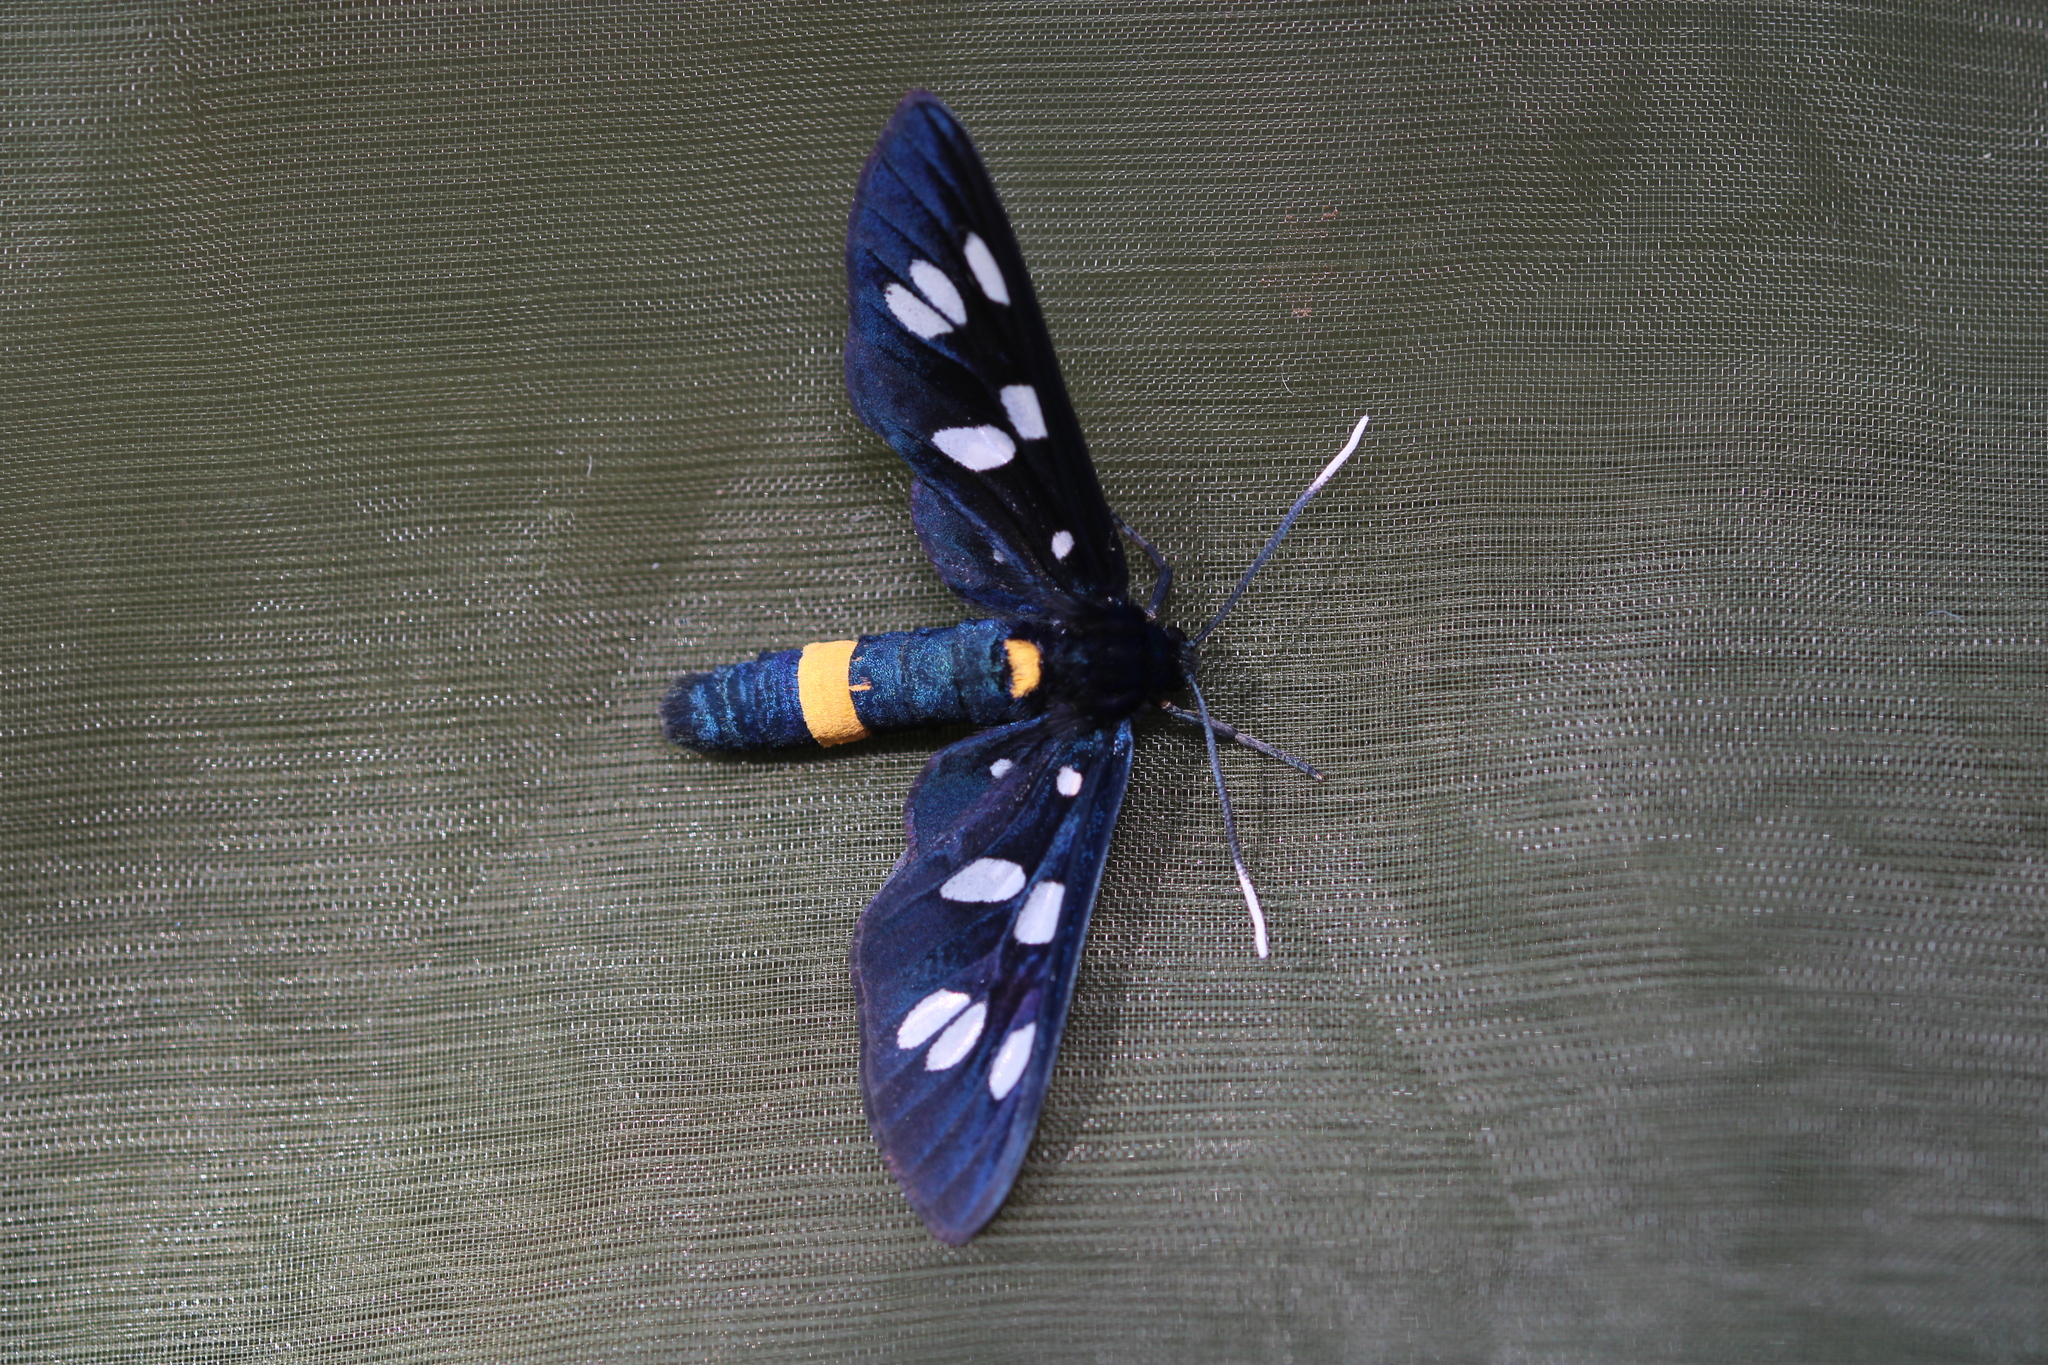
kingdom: Animalia
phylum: Arthropoda
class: Insecta
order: Lepidoptera
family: Erebidae
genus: Amata
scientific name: Amata phegea
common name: Nine-spotted
